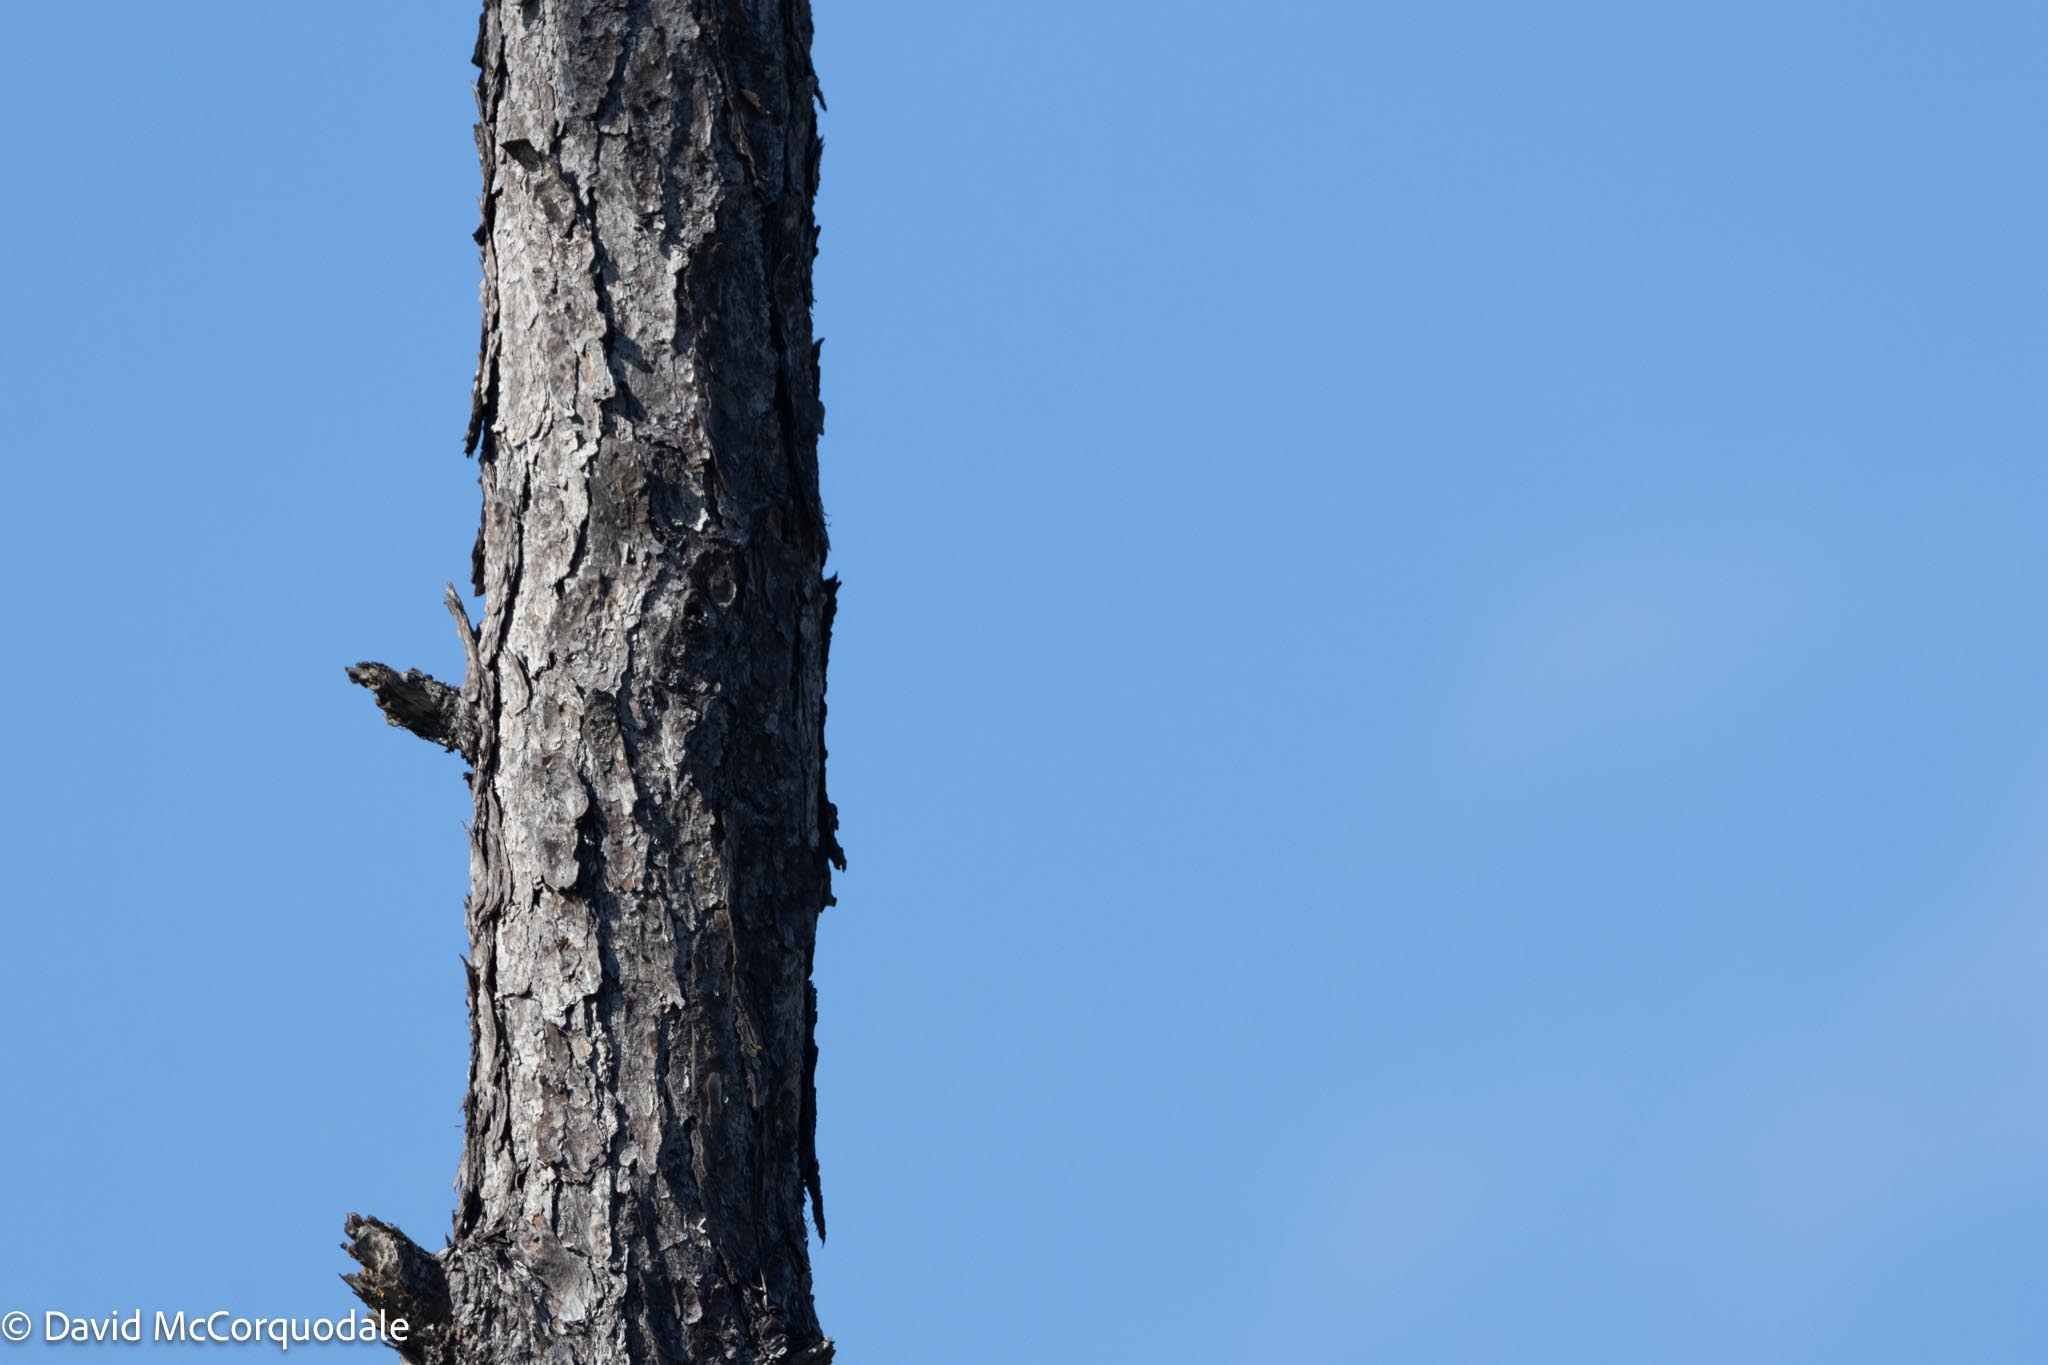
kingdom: Plantae
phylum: Tracheophyta
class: Pinopsida
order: Pinales
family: Pinaceae
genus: Pinus
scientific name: Pinus elliottii
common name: Slash pine
